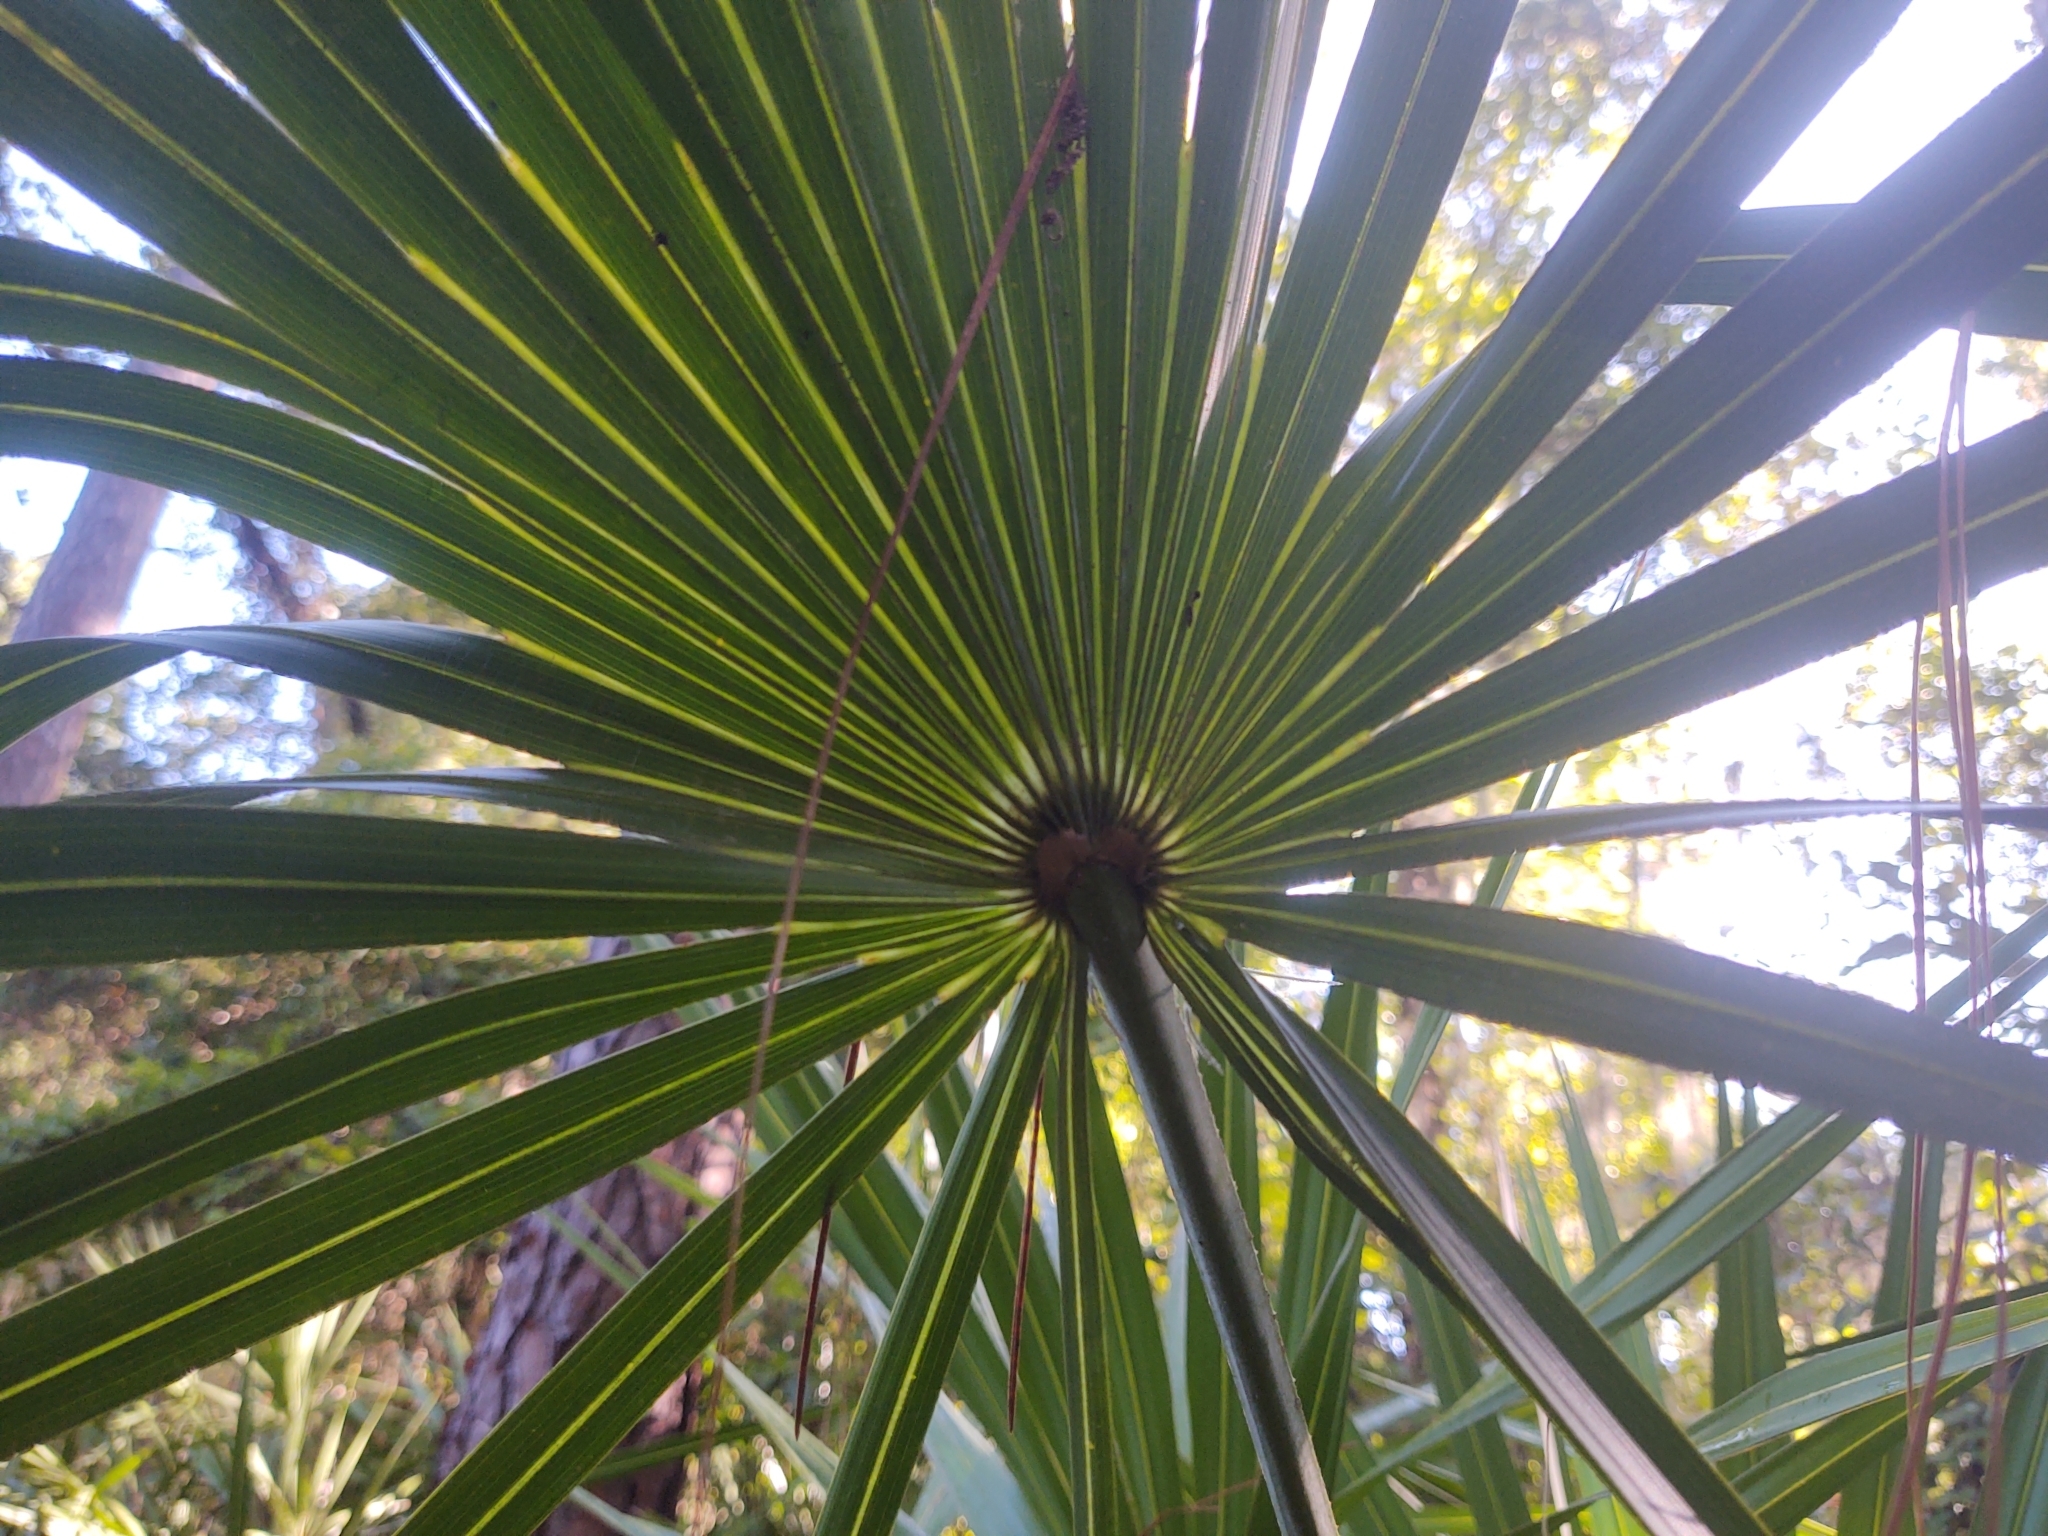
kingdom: Plantae
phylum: Tracheophyta
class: Liliopsida
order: Arecales
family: Arecaceae
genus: Serenoa
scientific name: Serenoa repens
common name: Saw-palmetto
